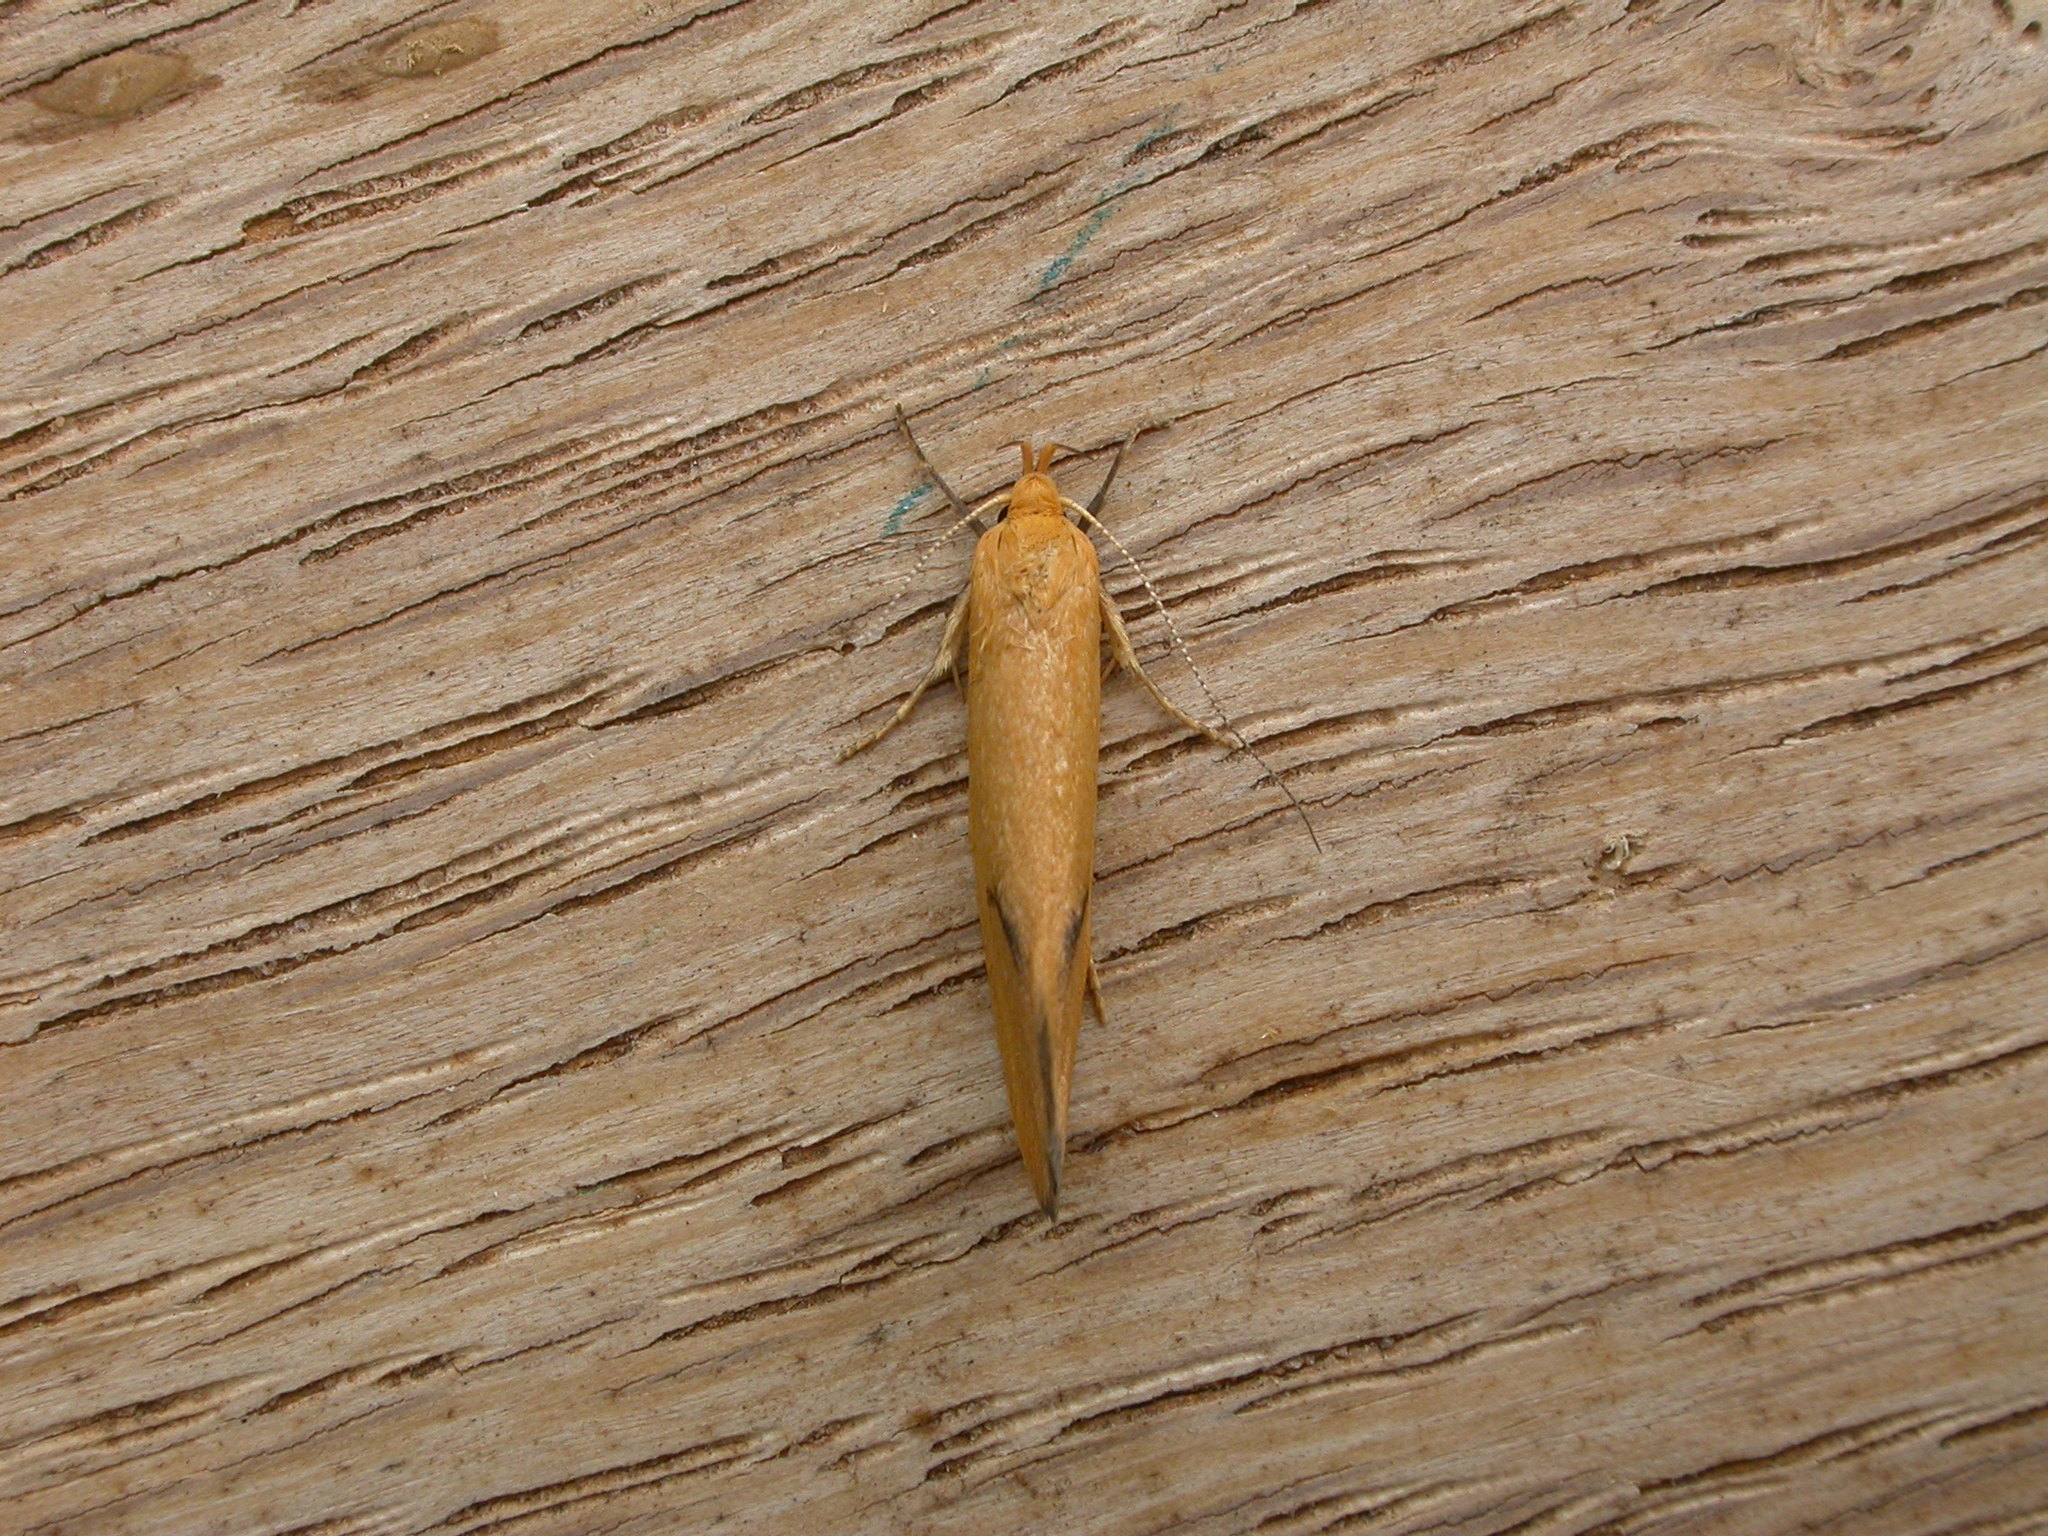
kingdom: Animalia
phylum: Arthropoda
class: Insecta
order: Lepidoptera
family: Oecophoridae
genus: Telocharacta
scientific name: Telocharacta hemicroca
